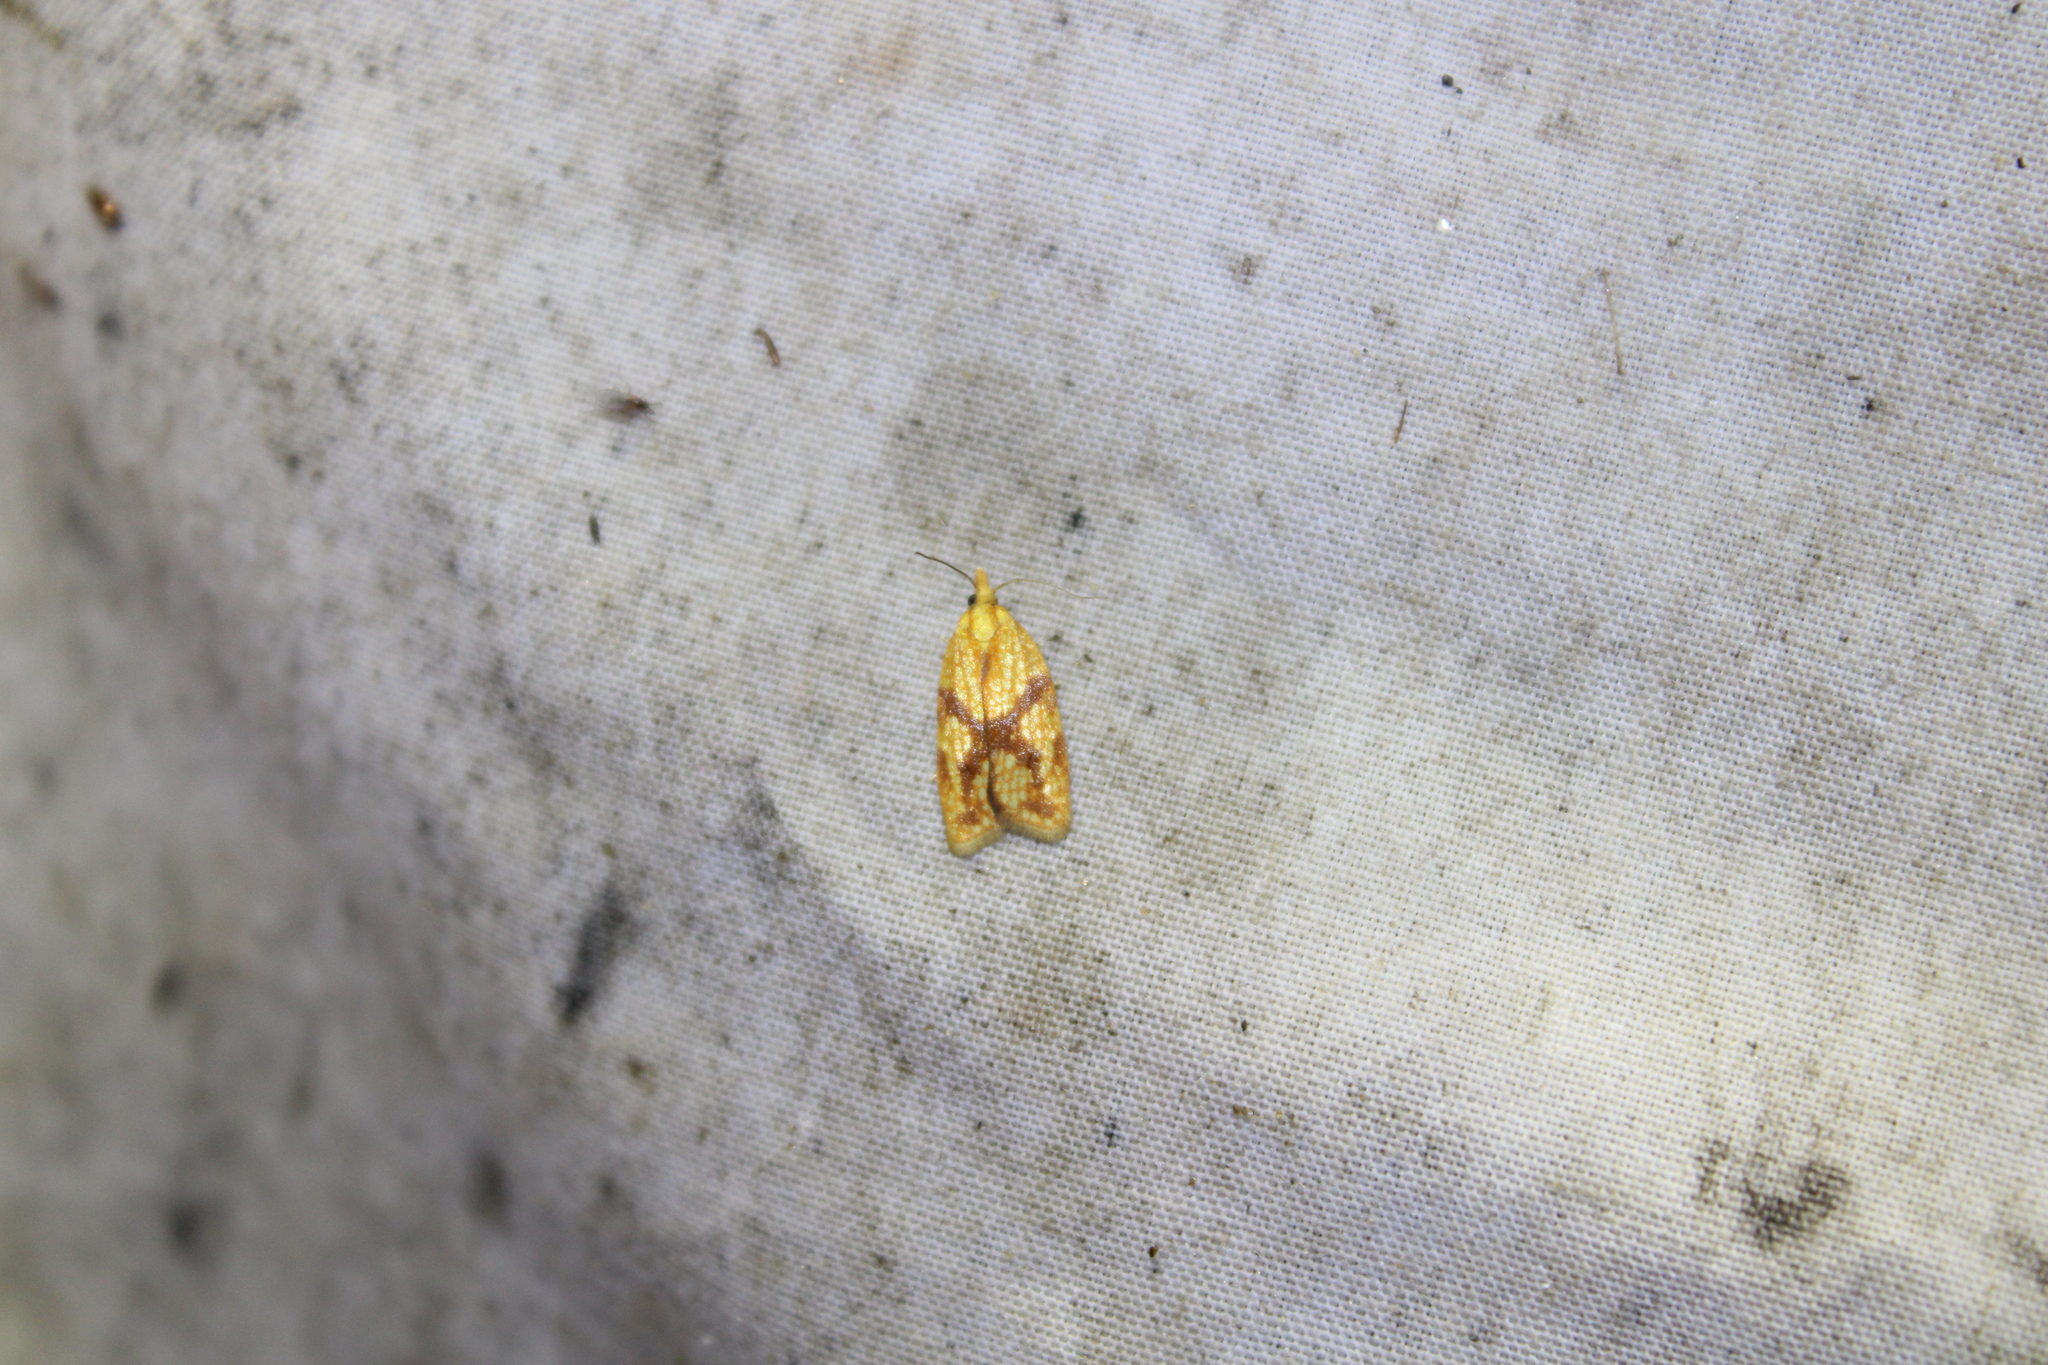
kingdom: Animalia
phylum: Arthropoda
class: Insecta
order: Lepidoptera
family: Tortricidae
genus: Sparganothis
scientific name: Sparganothis sulfureana
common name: Sparganothis fruitworm moth
